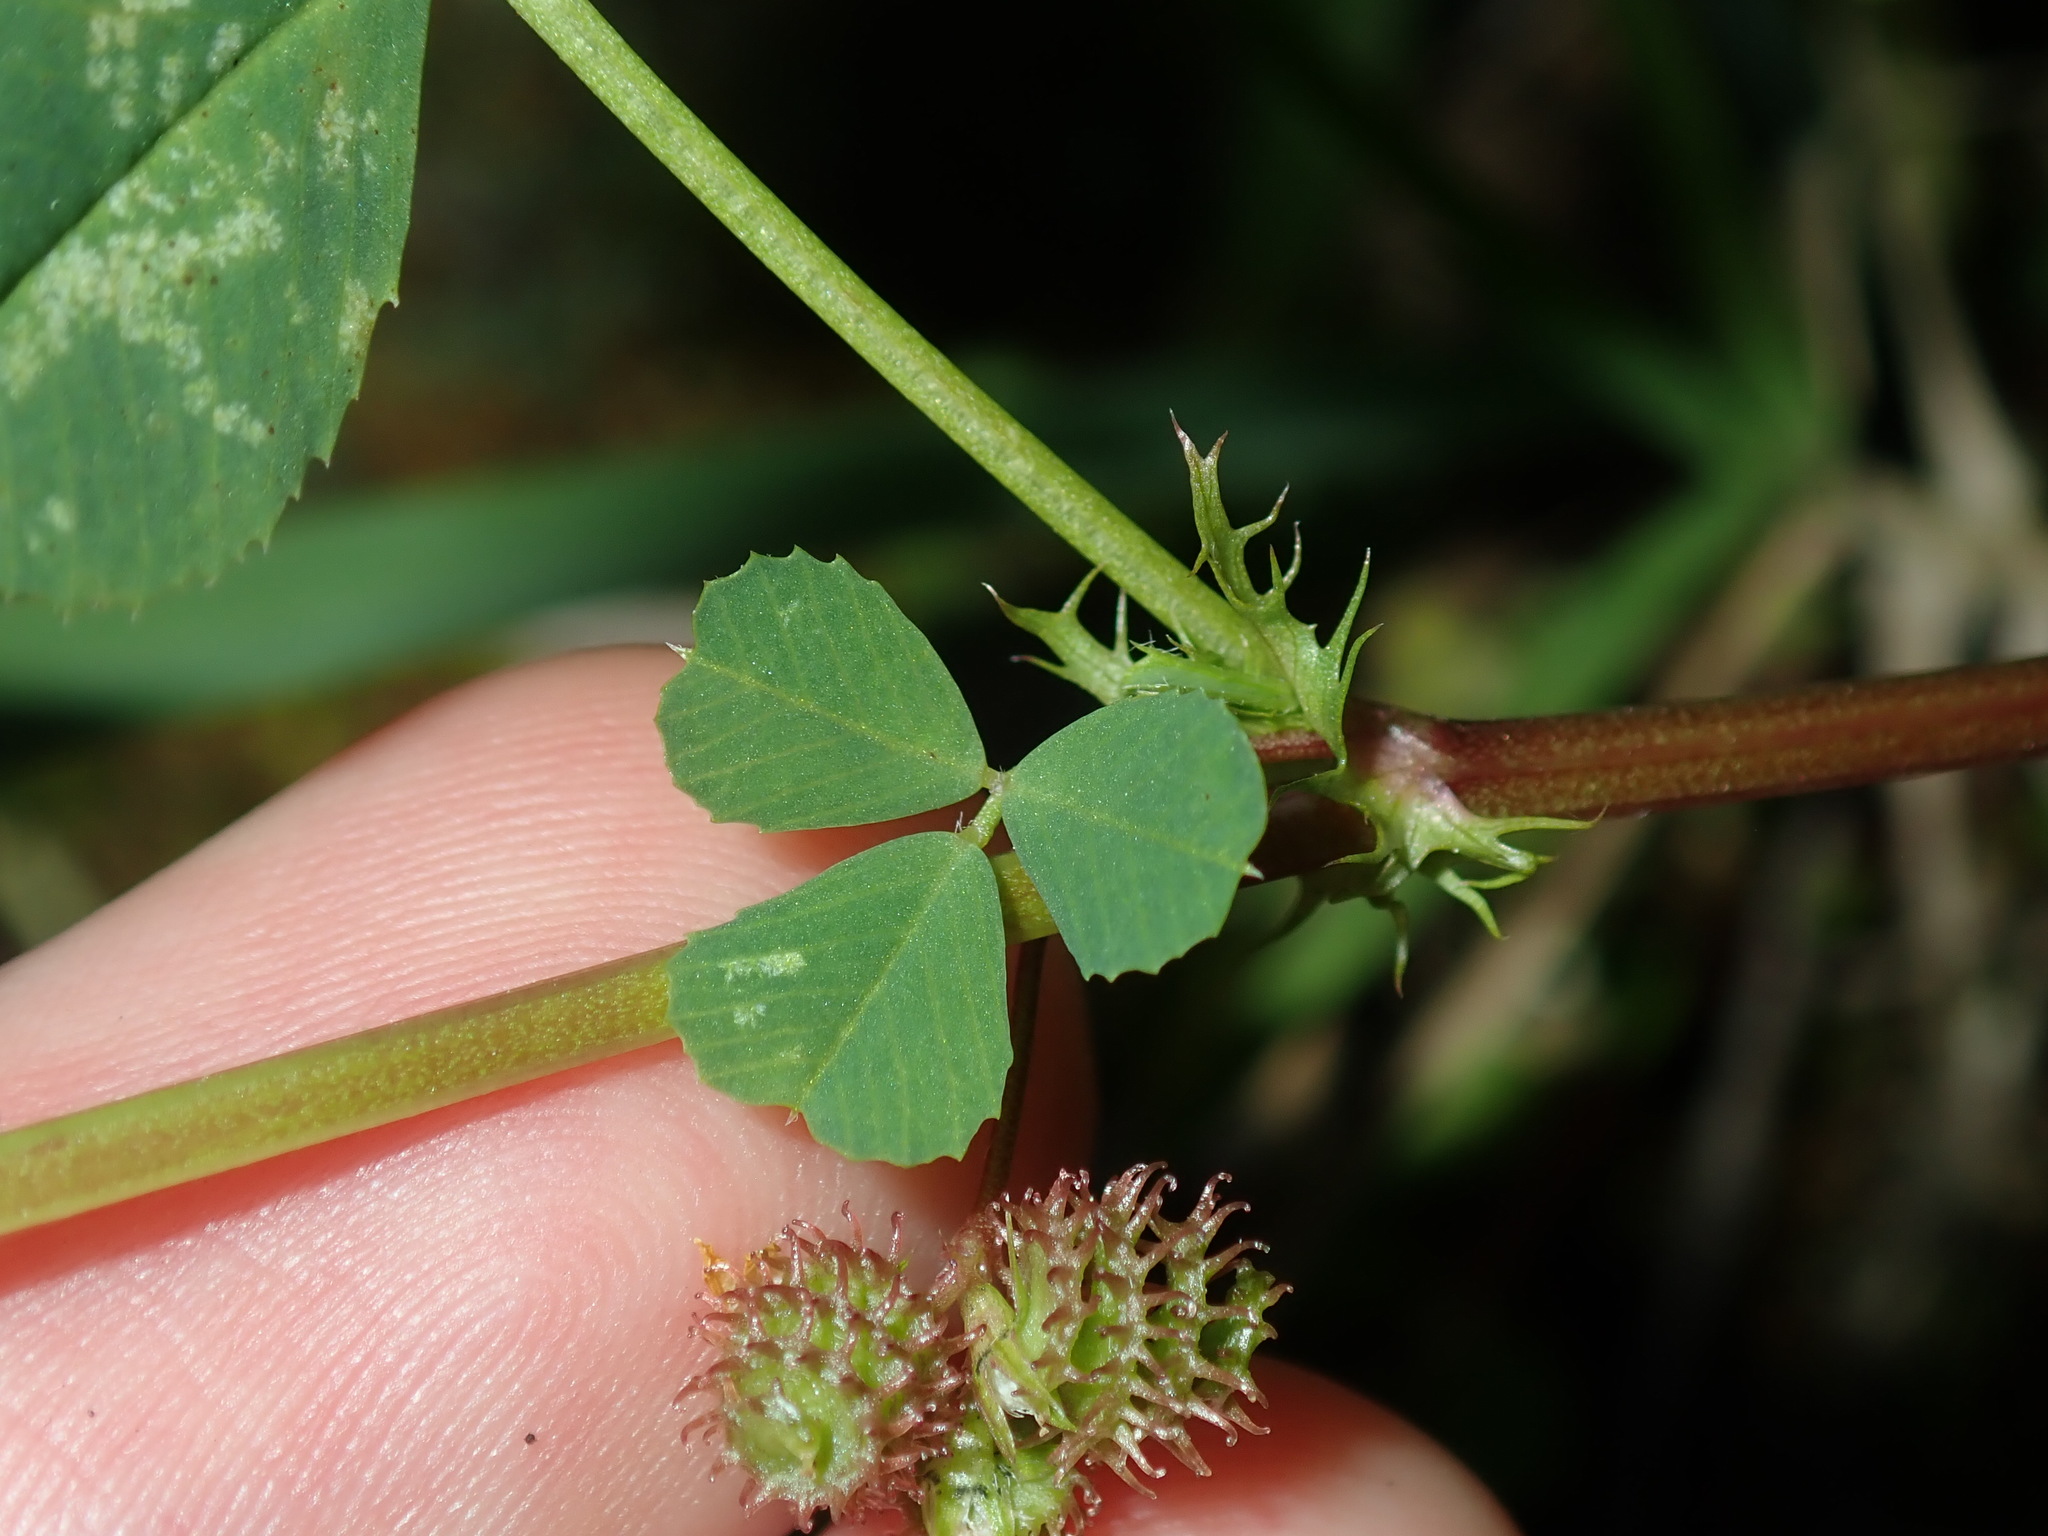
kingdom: Plantae
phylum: Tracheophyta
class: Magnoliopsida
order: Fabales
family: Fabaceae
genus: Medicago
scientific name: Medicago polymorpha
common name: Burclover
